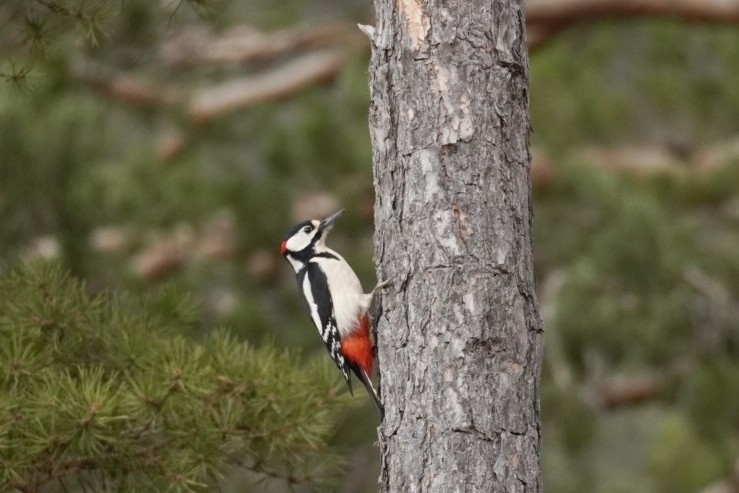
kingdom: Animalia
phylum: Chordata
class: Aves
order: Piciformes
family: Picidae
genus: Dendrocopos
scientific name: Dendrocopos major
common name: Great spotted woodpecker
